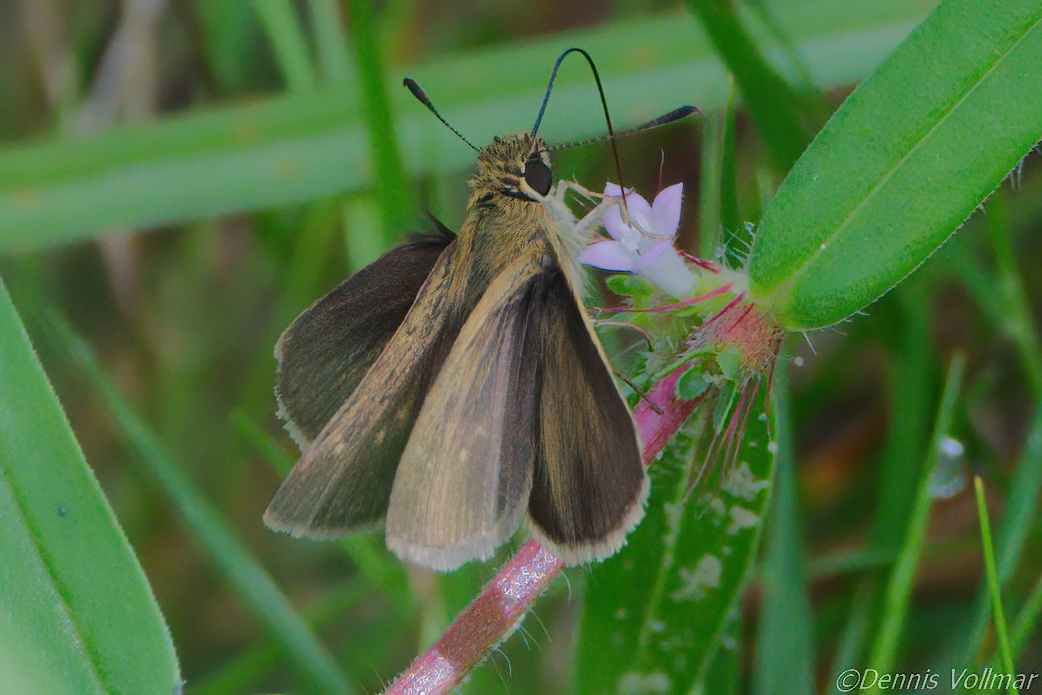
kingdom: Animalia
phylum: Arthropoda
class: Insecta
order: Lepidoptera
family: Hesperiidae
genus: Nastra
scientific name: Nastra
